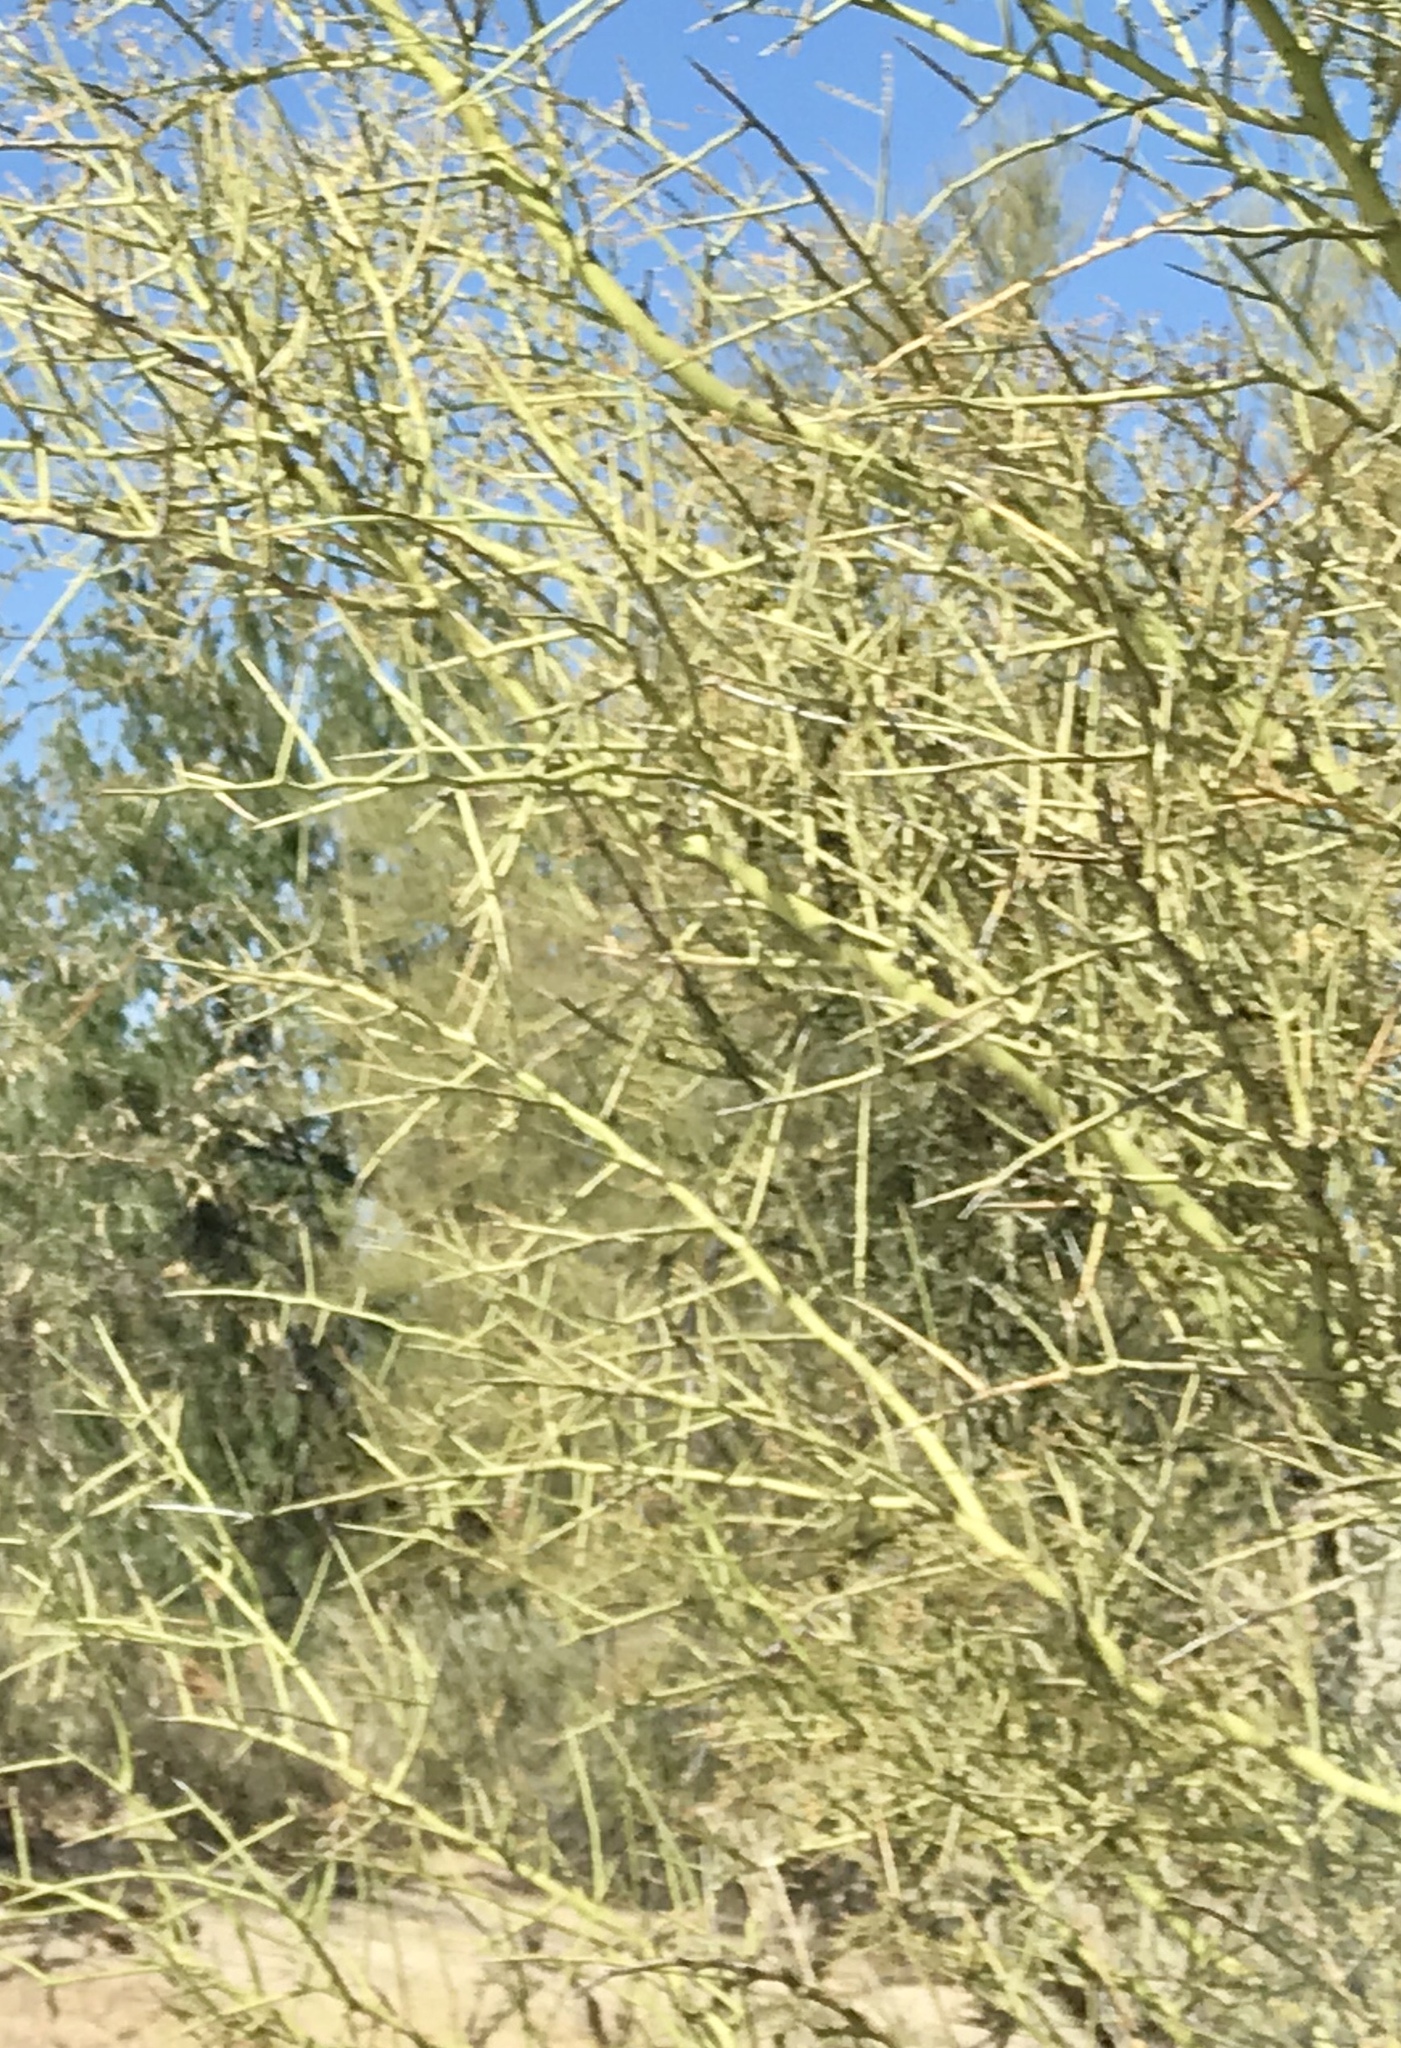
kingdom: Plantae
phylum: Tracheophyta
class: Magnoliopsida
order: Fabales
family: Fabaceae
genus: Parkinsonia
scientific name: Parkinsonia microphylla
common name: Yellow paloverde
